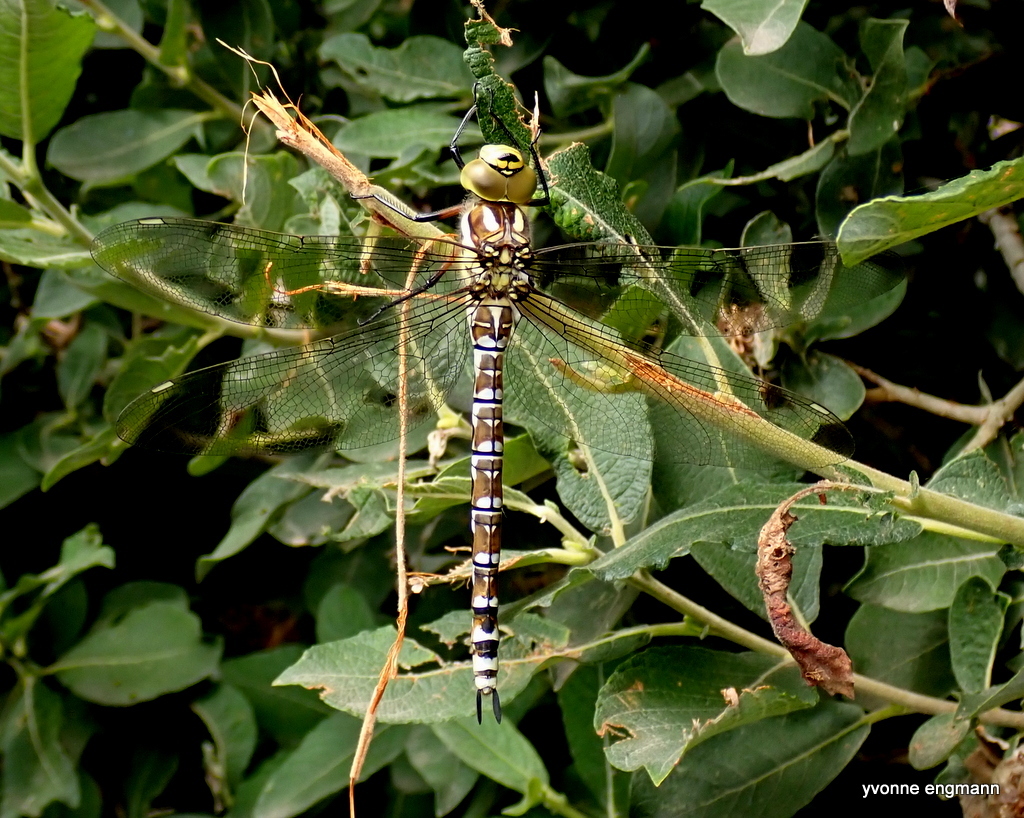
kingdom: Animalia
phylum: Arthropoda
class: Insecta
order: Odonata
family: Aeshnidae
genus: Aeshna
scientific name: Aeshna cyanea
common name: Southern hawker
